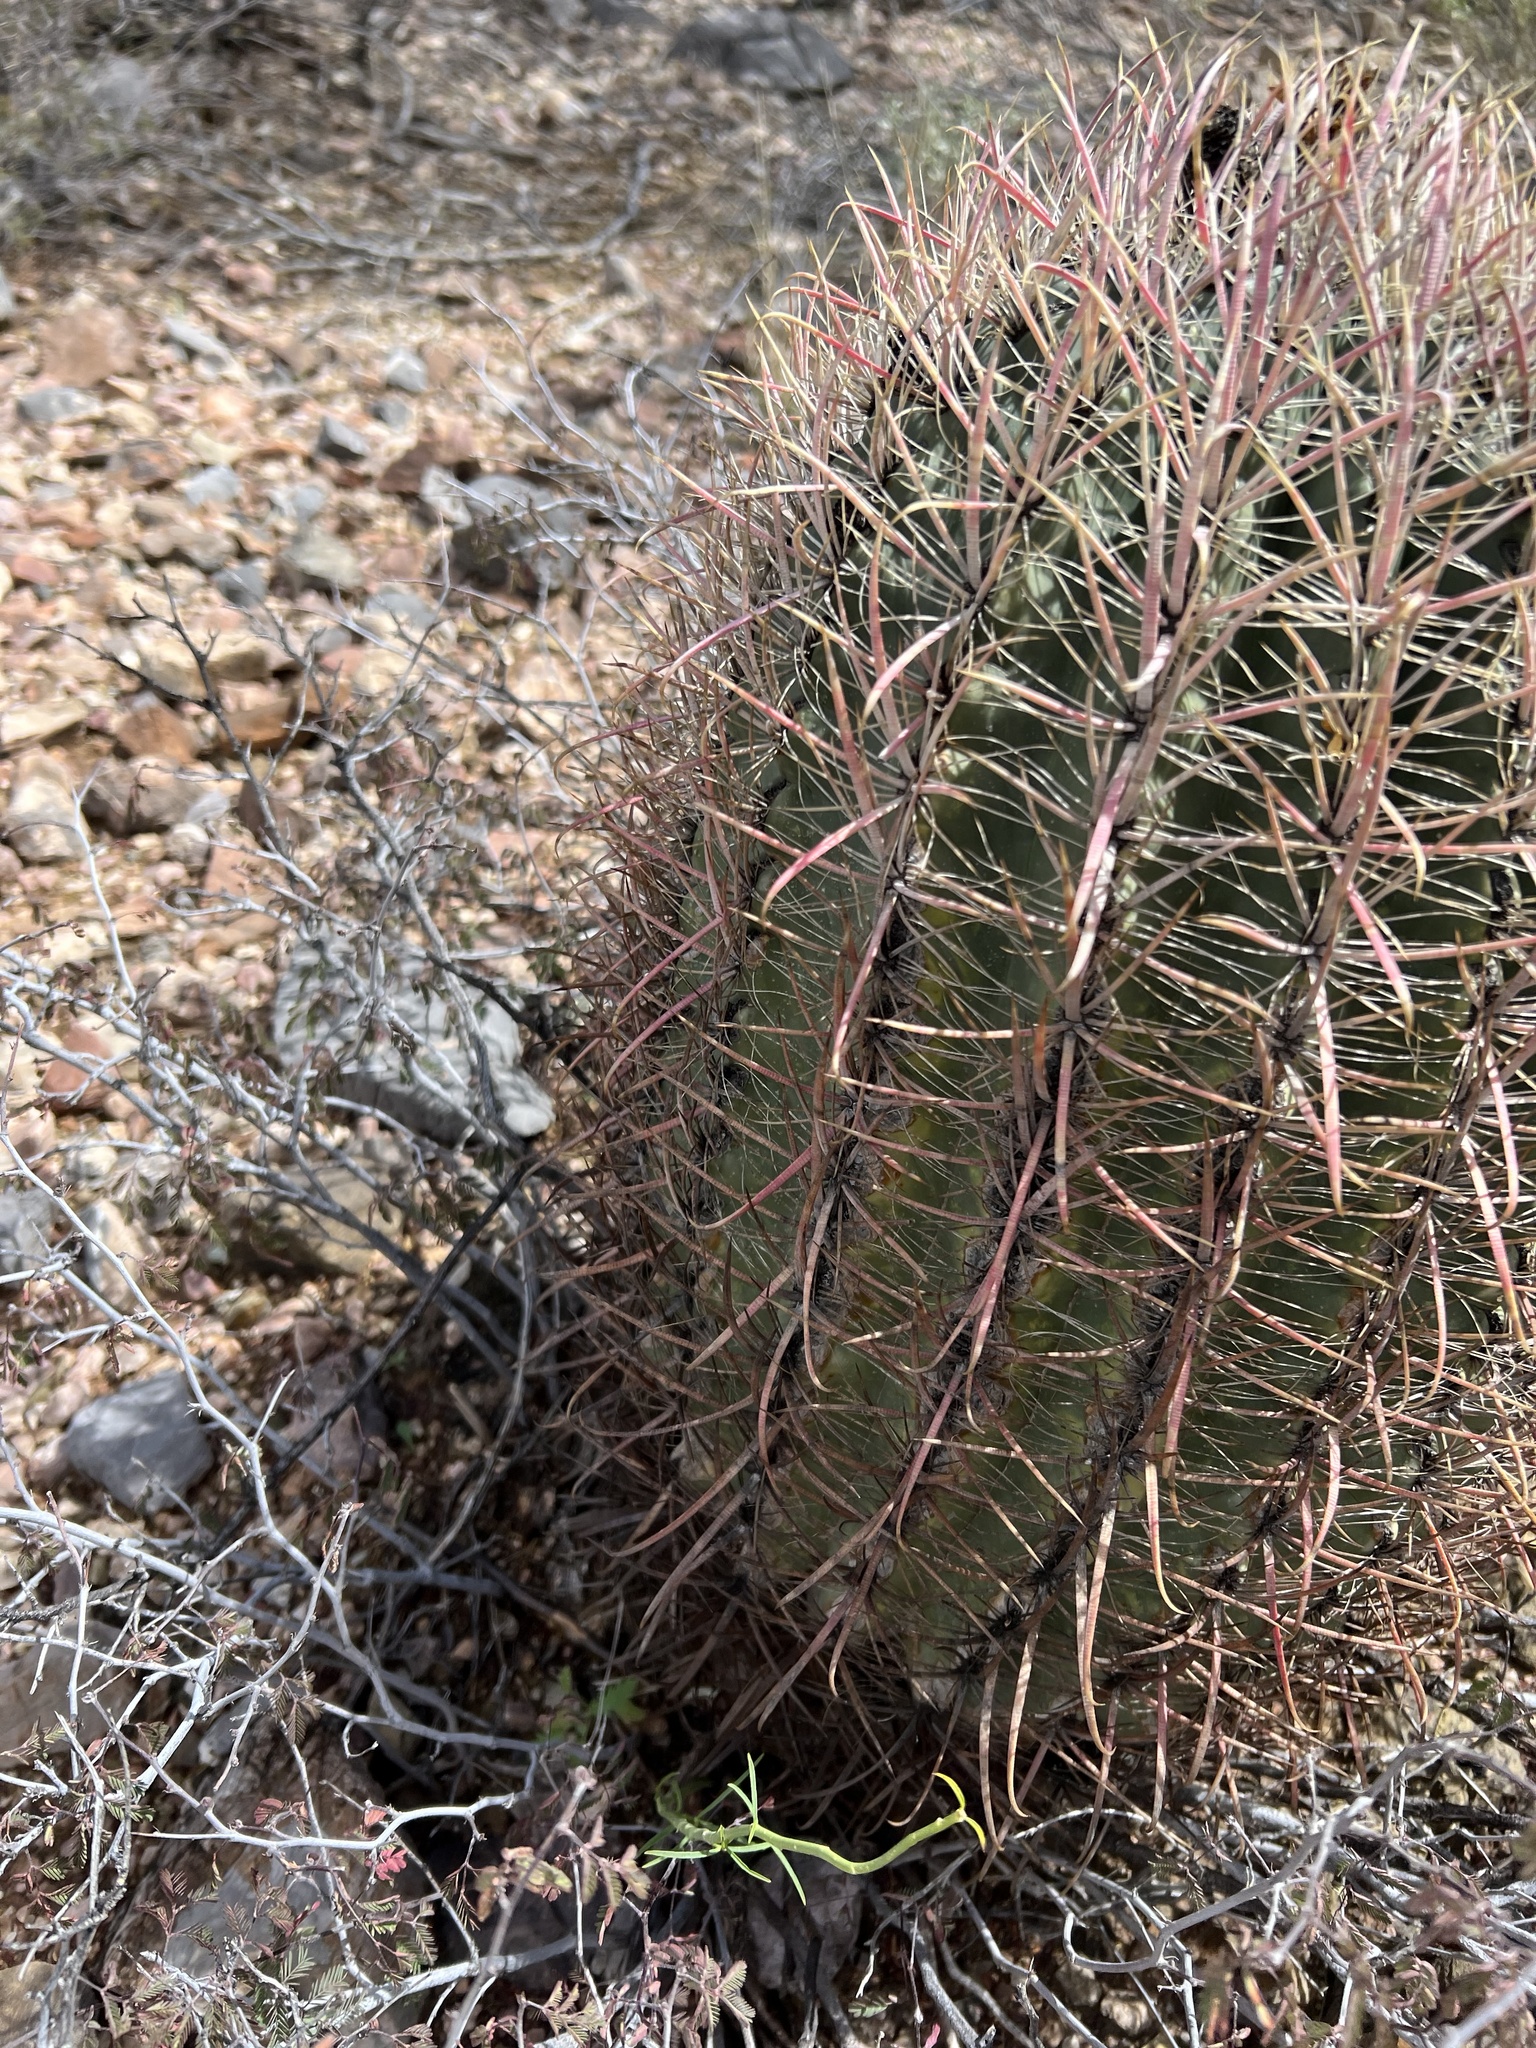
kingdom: Plantae
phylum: Tracheophyta
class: Magnoliopsida
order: Caryophyllales
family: Cactaceae
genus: Ferocactus
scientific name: Ferocactus cylindraceus
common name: California barrel cactus
